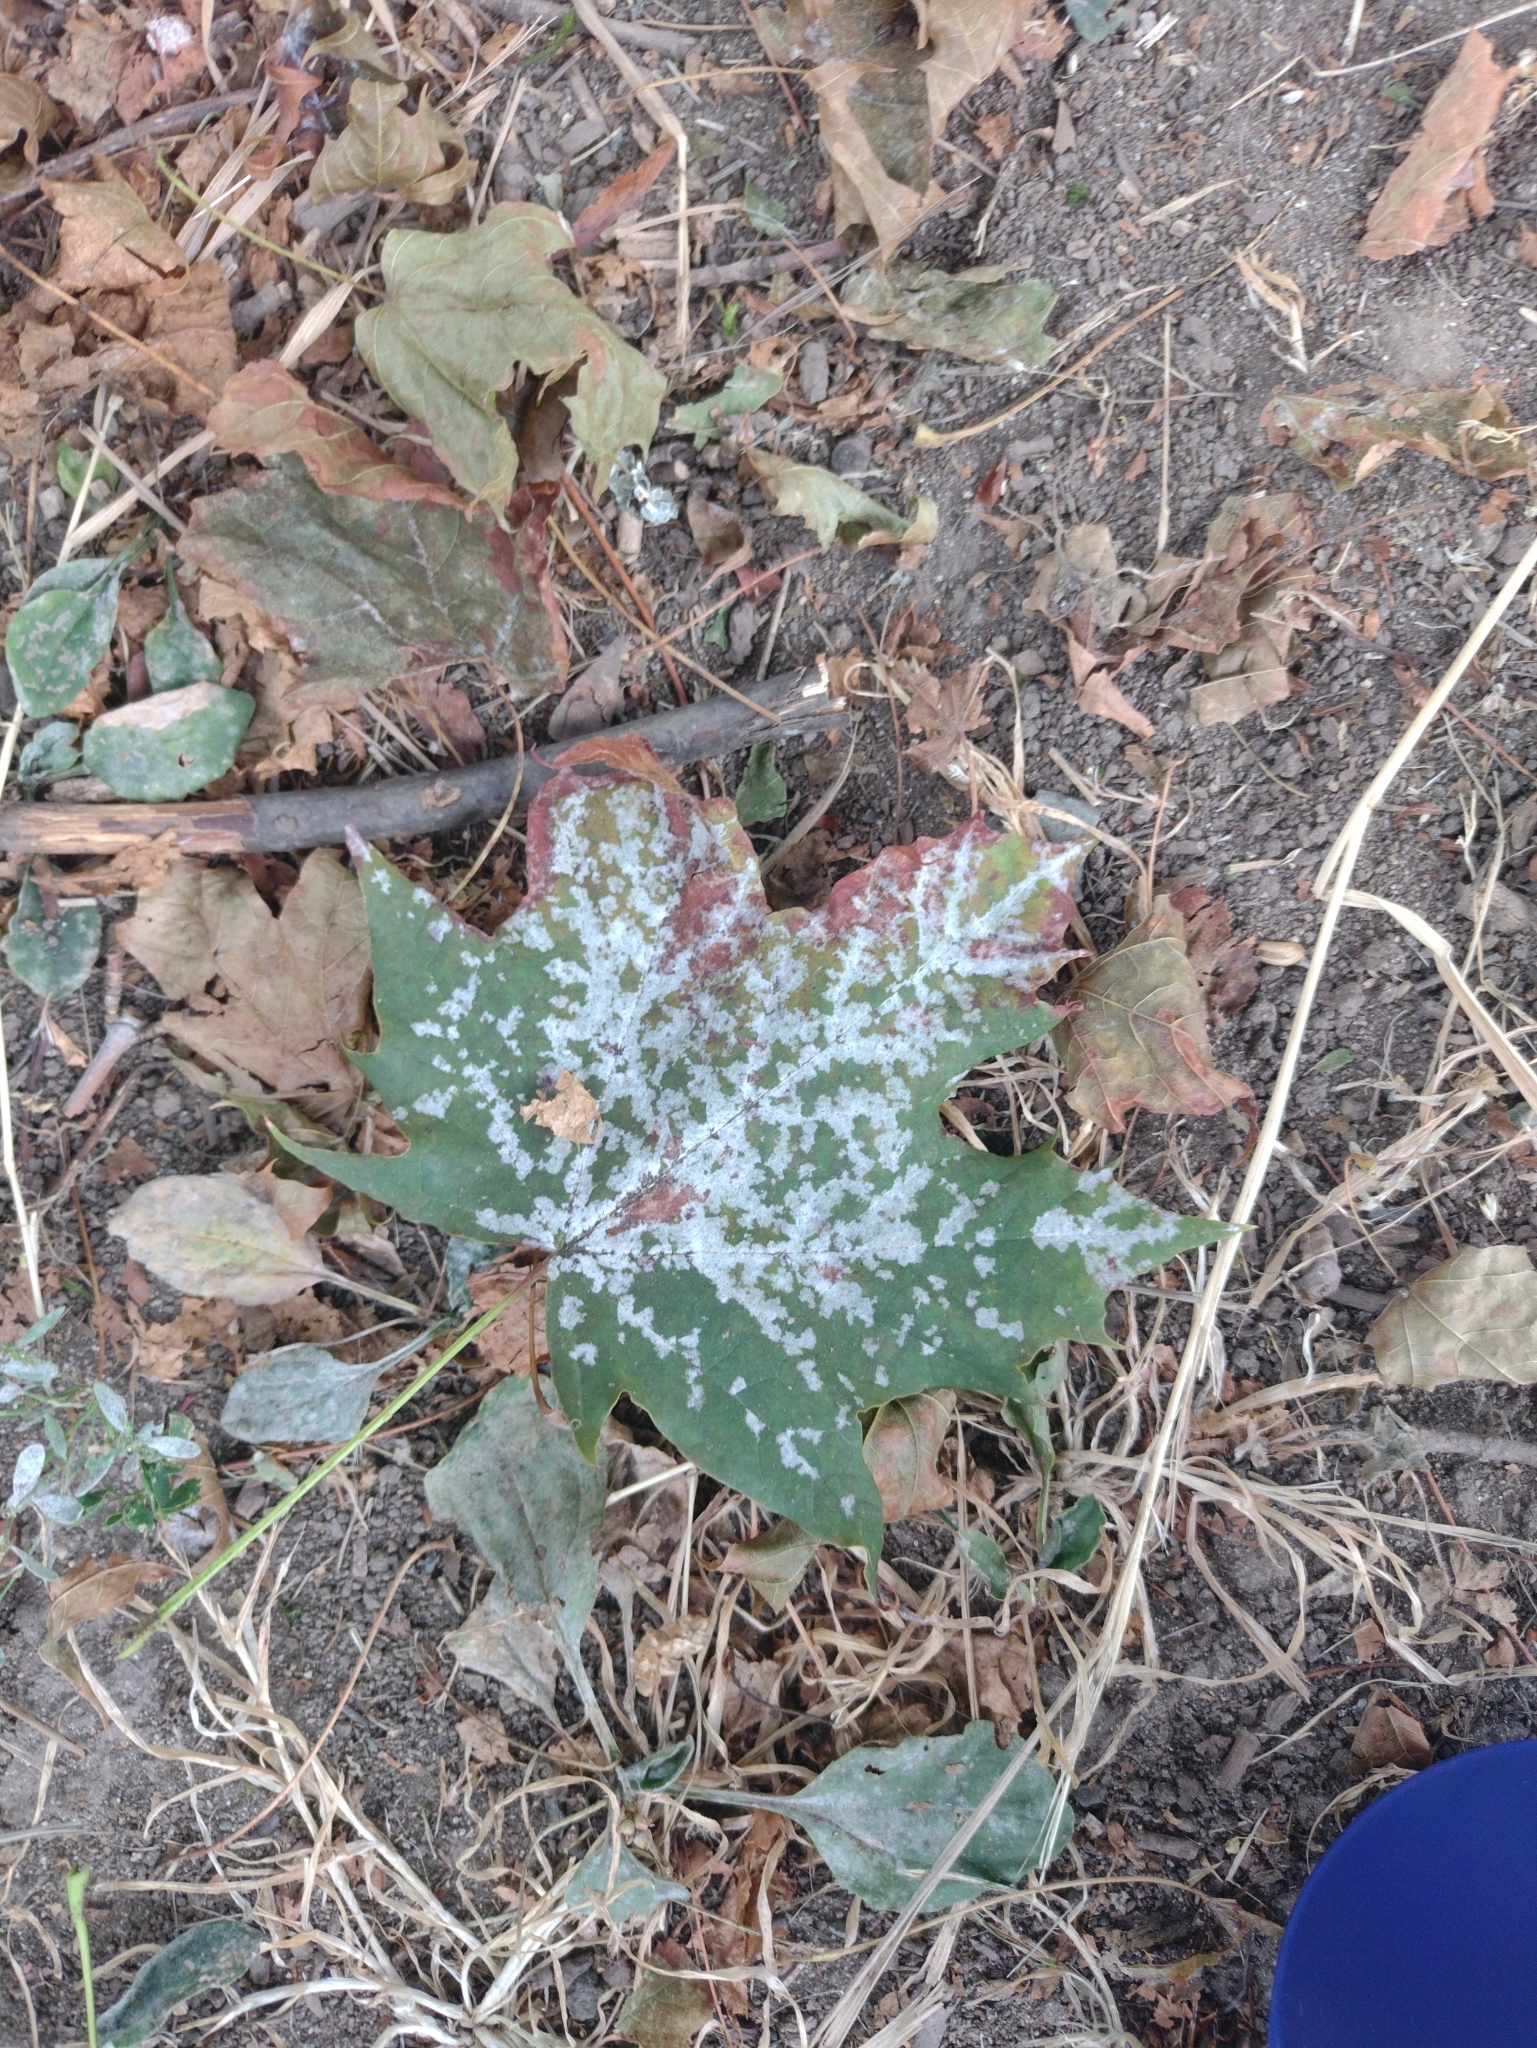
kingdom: Fungi
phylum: Ascomycota
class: Leotiomycetes
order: Helotiales
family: Erysiphaceae
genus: Sawadaea
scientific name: Sawadaea bicornis
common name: Maple mildew
